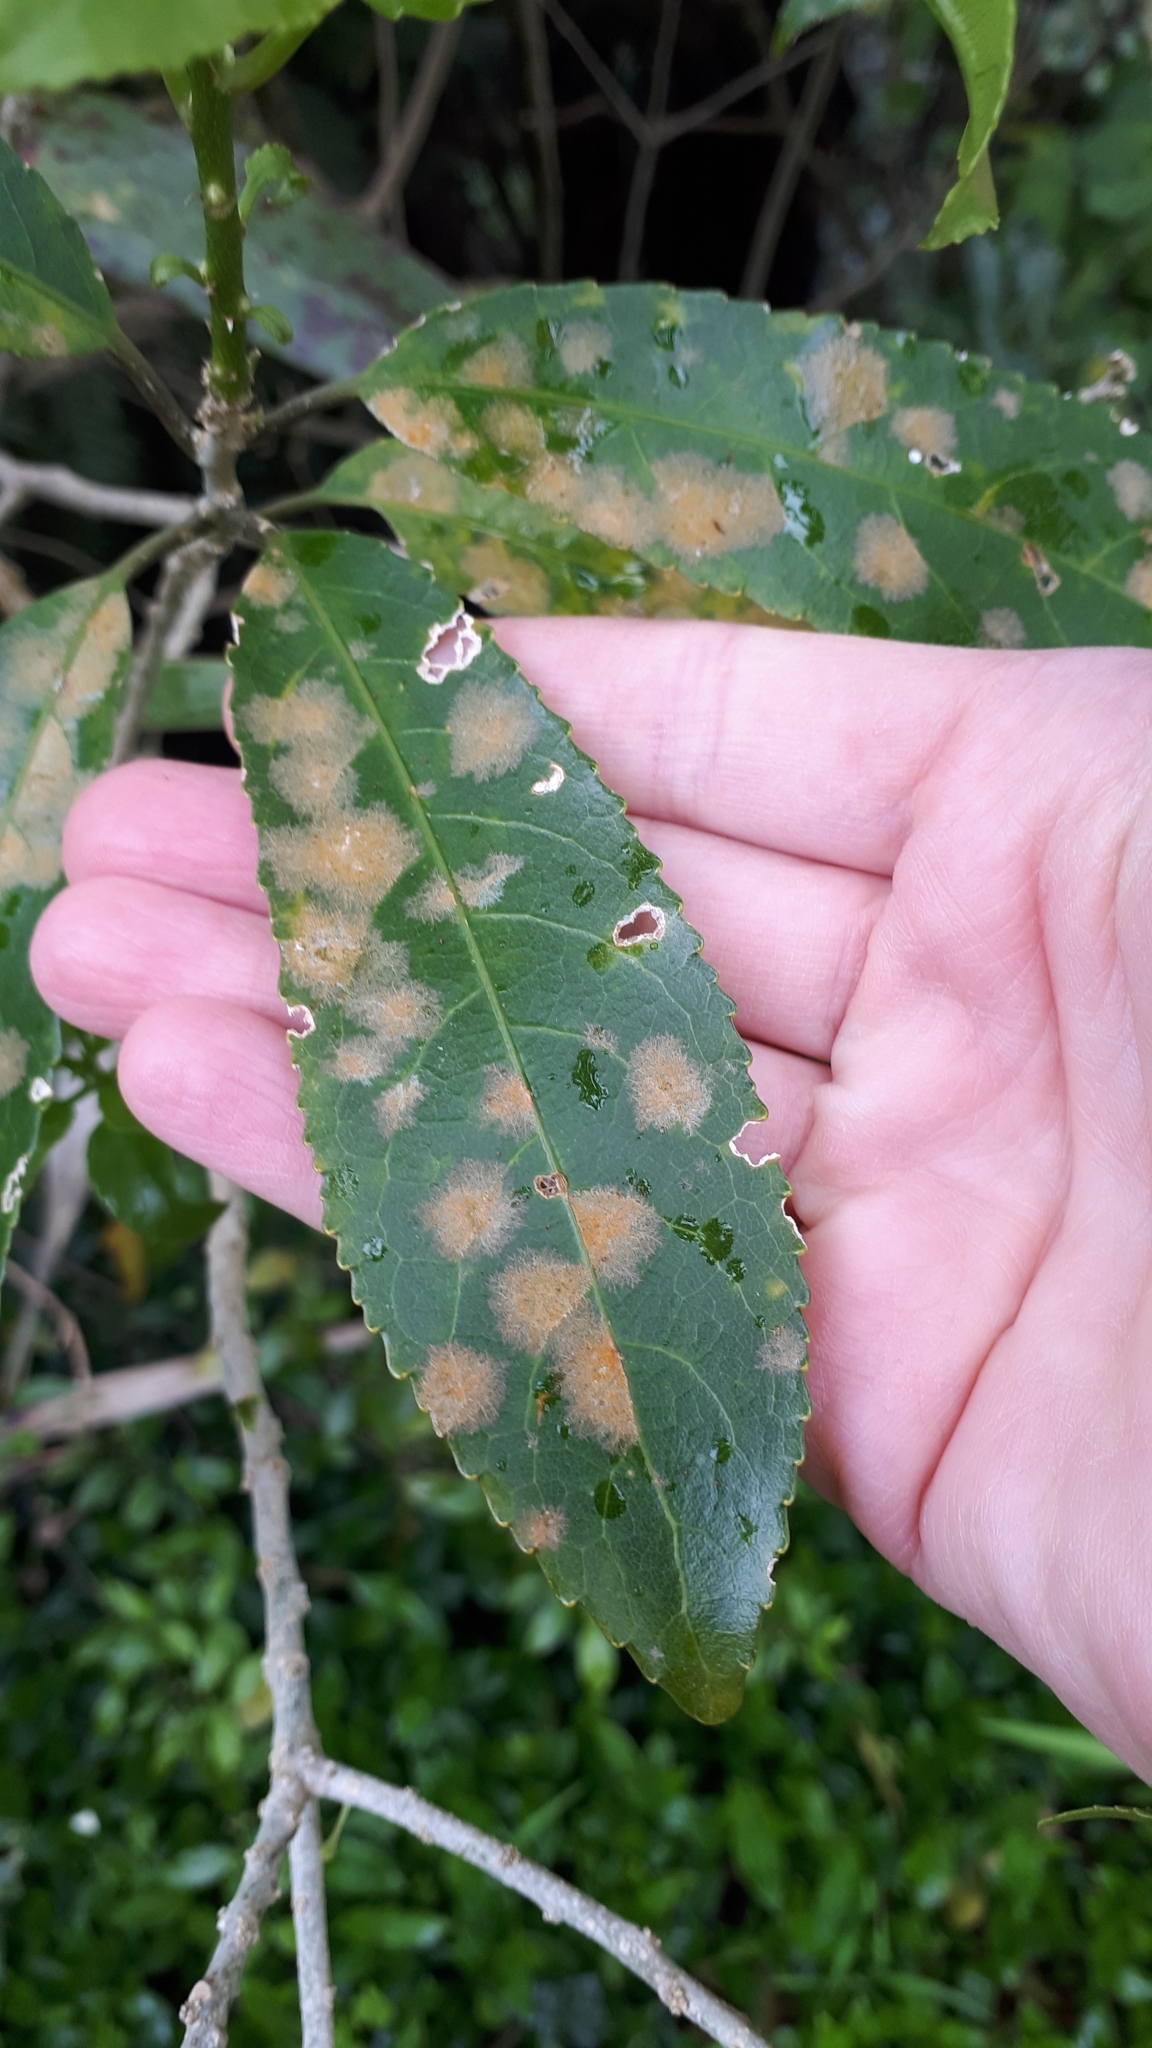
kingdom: Plantae
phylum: Chlorophyta
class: Ulvophyceae
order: Trentepohliales
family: Trentepohliaceae
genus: Cephaleuros
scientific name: Cephaleuros
